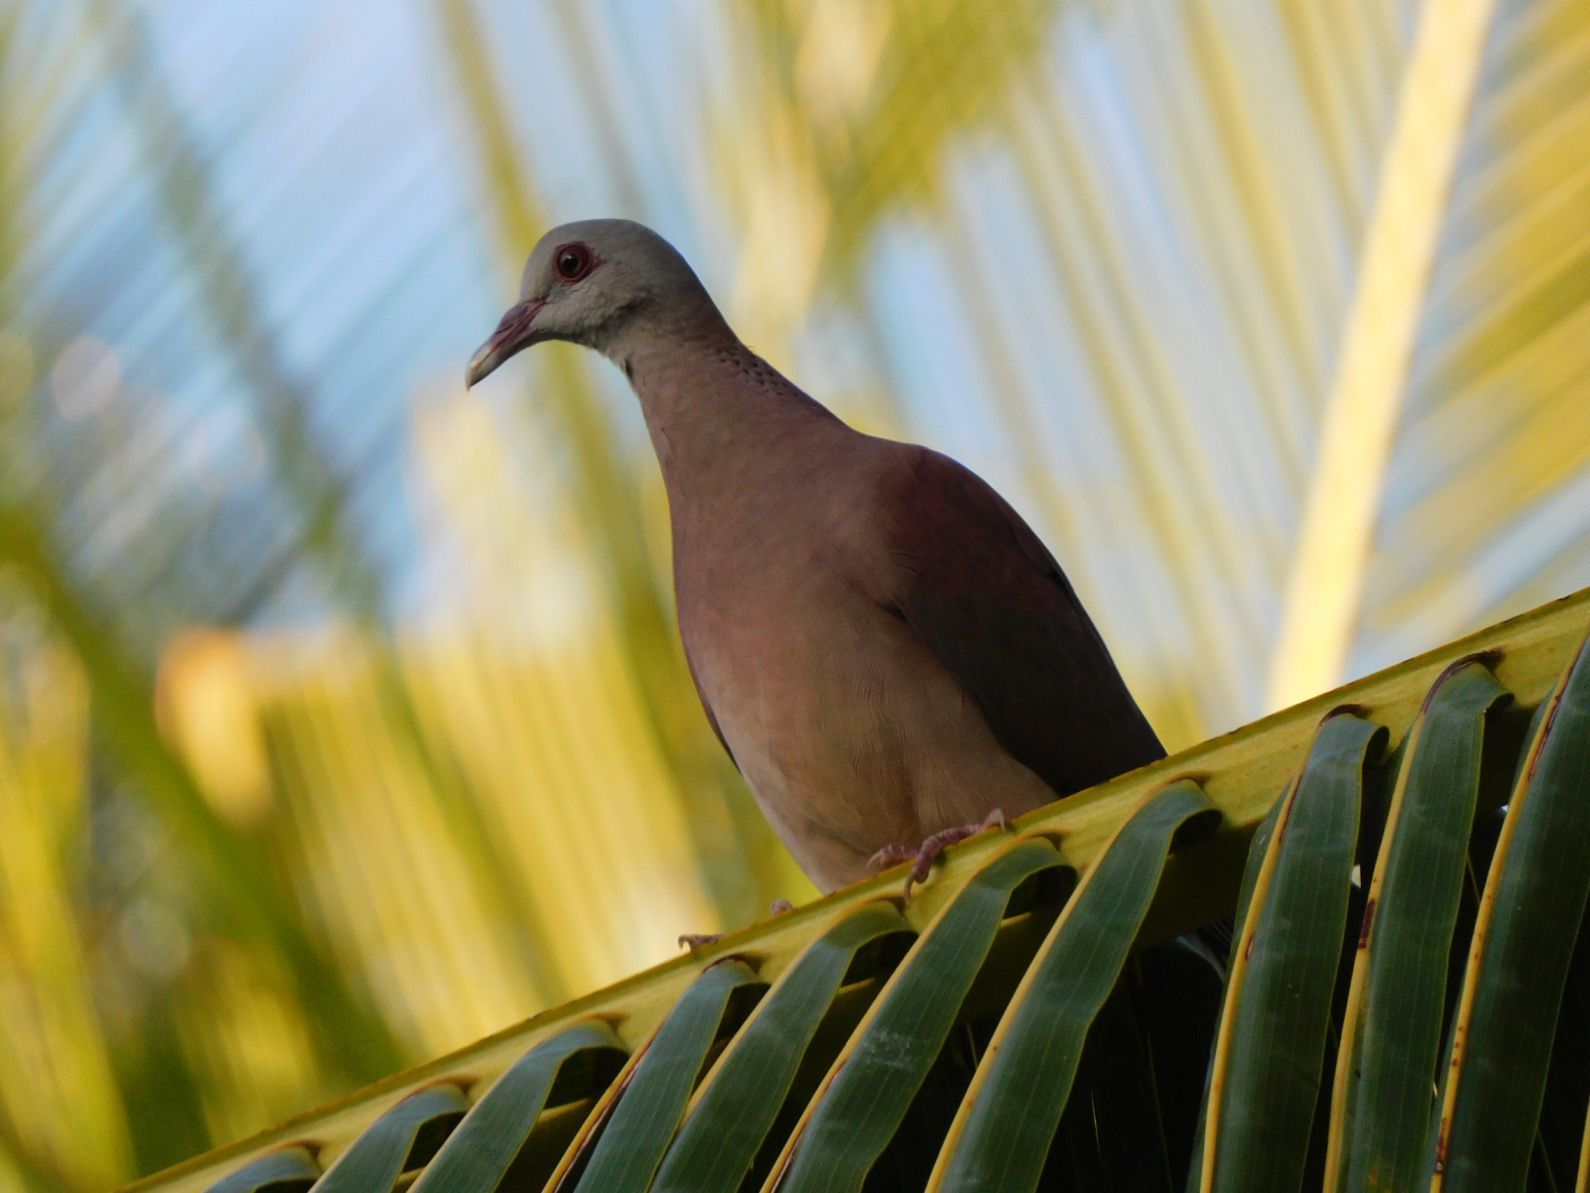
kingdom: Animalia
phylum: Chordata
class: Aves
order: Columbiformes
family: Columbidae
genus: Nesoenas
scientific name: Nesoenas picturatus
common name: Malagasy turtle dove
